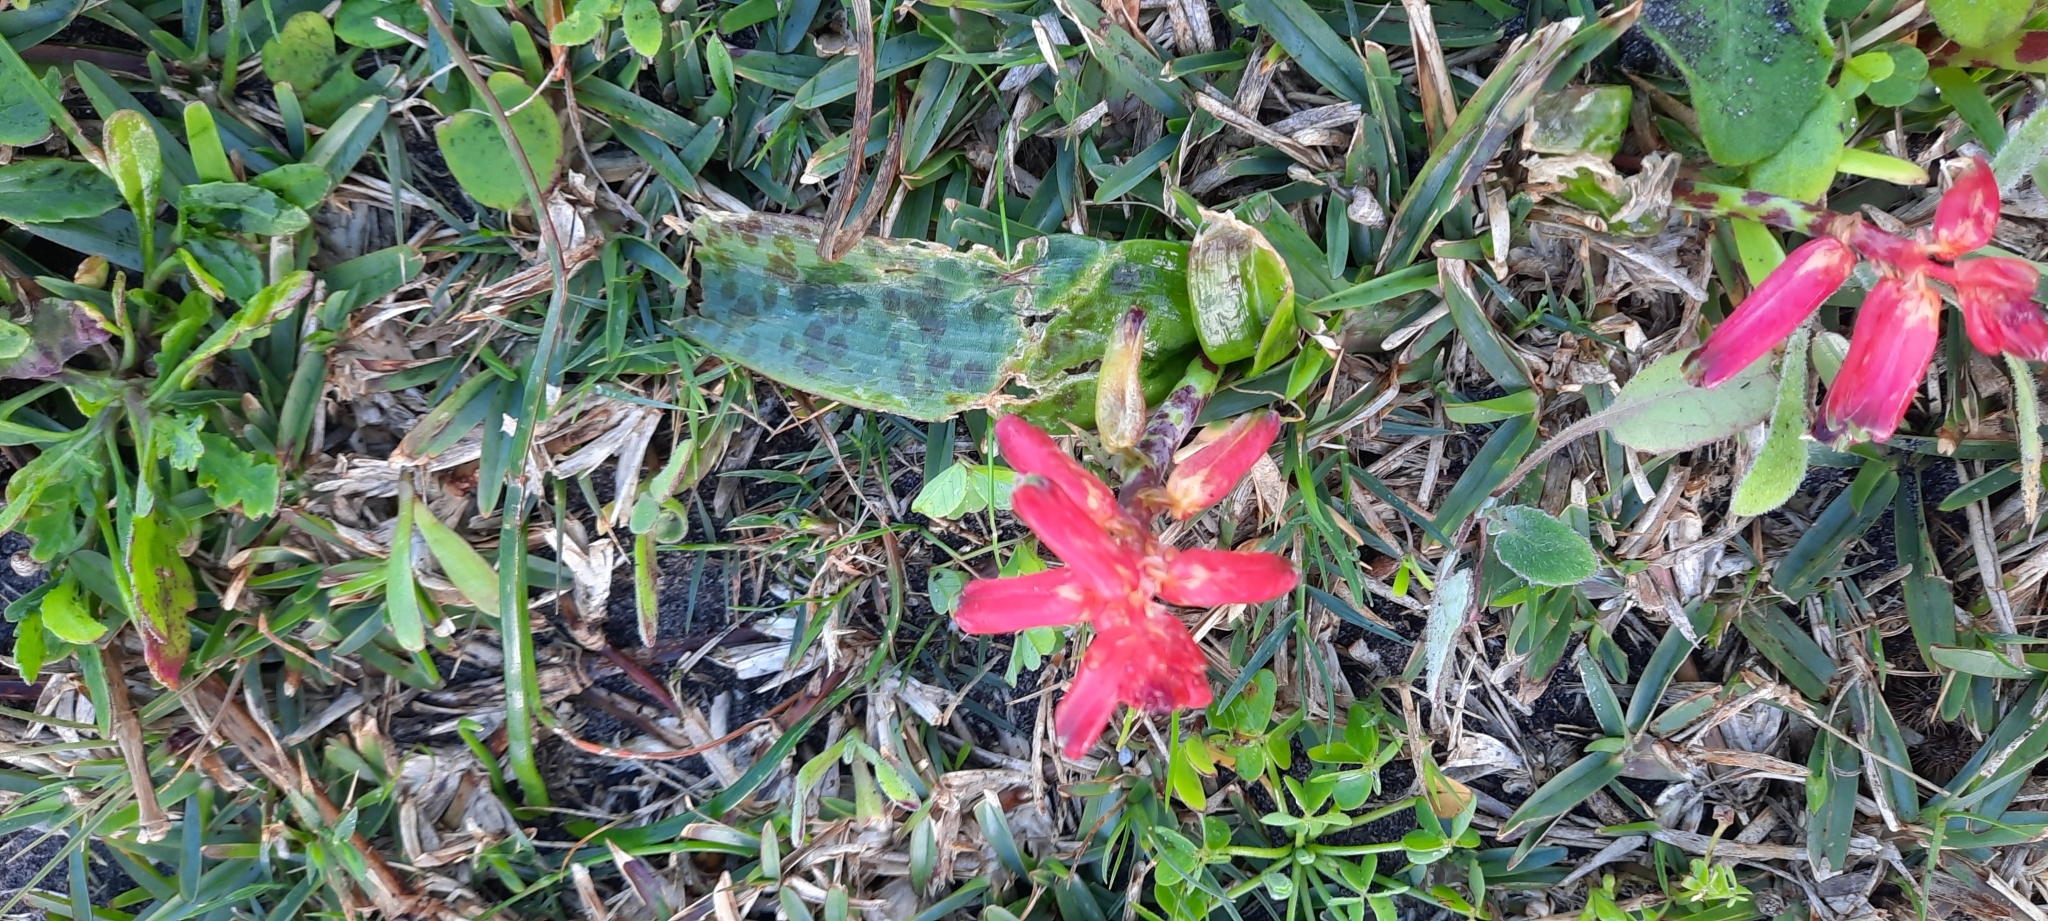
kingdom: Plantae
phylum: Tracheophyta
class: Liliopsida
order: Asparagales
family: Asparagaceae
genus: Lachenalia
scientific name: Lachenalia bulbifera
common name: Red lachenalia
